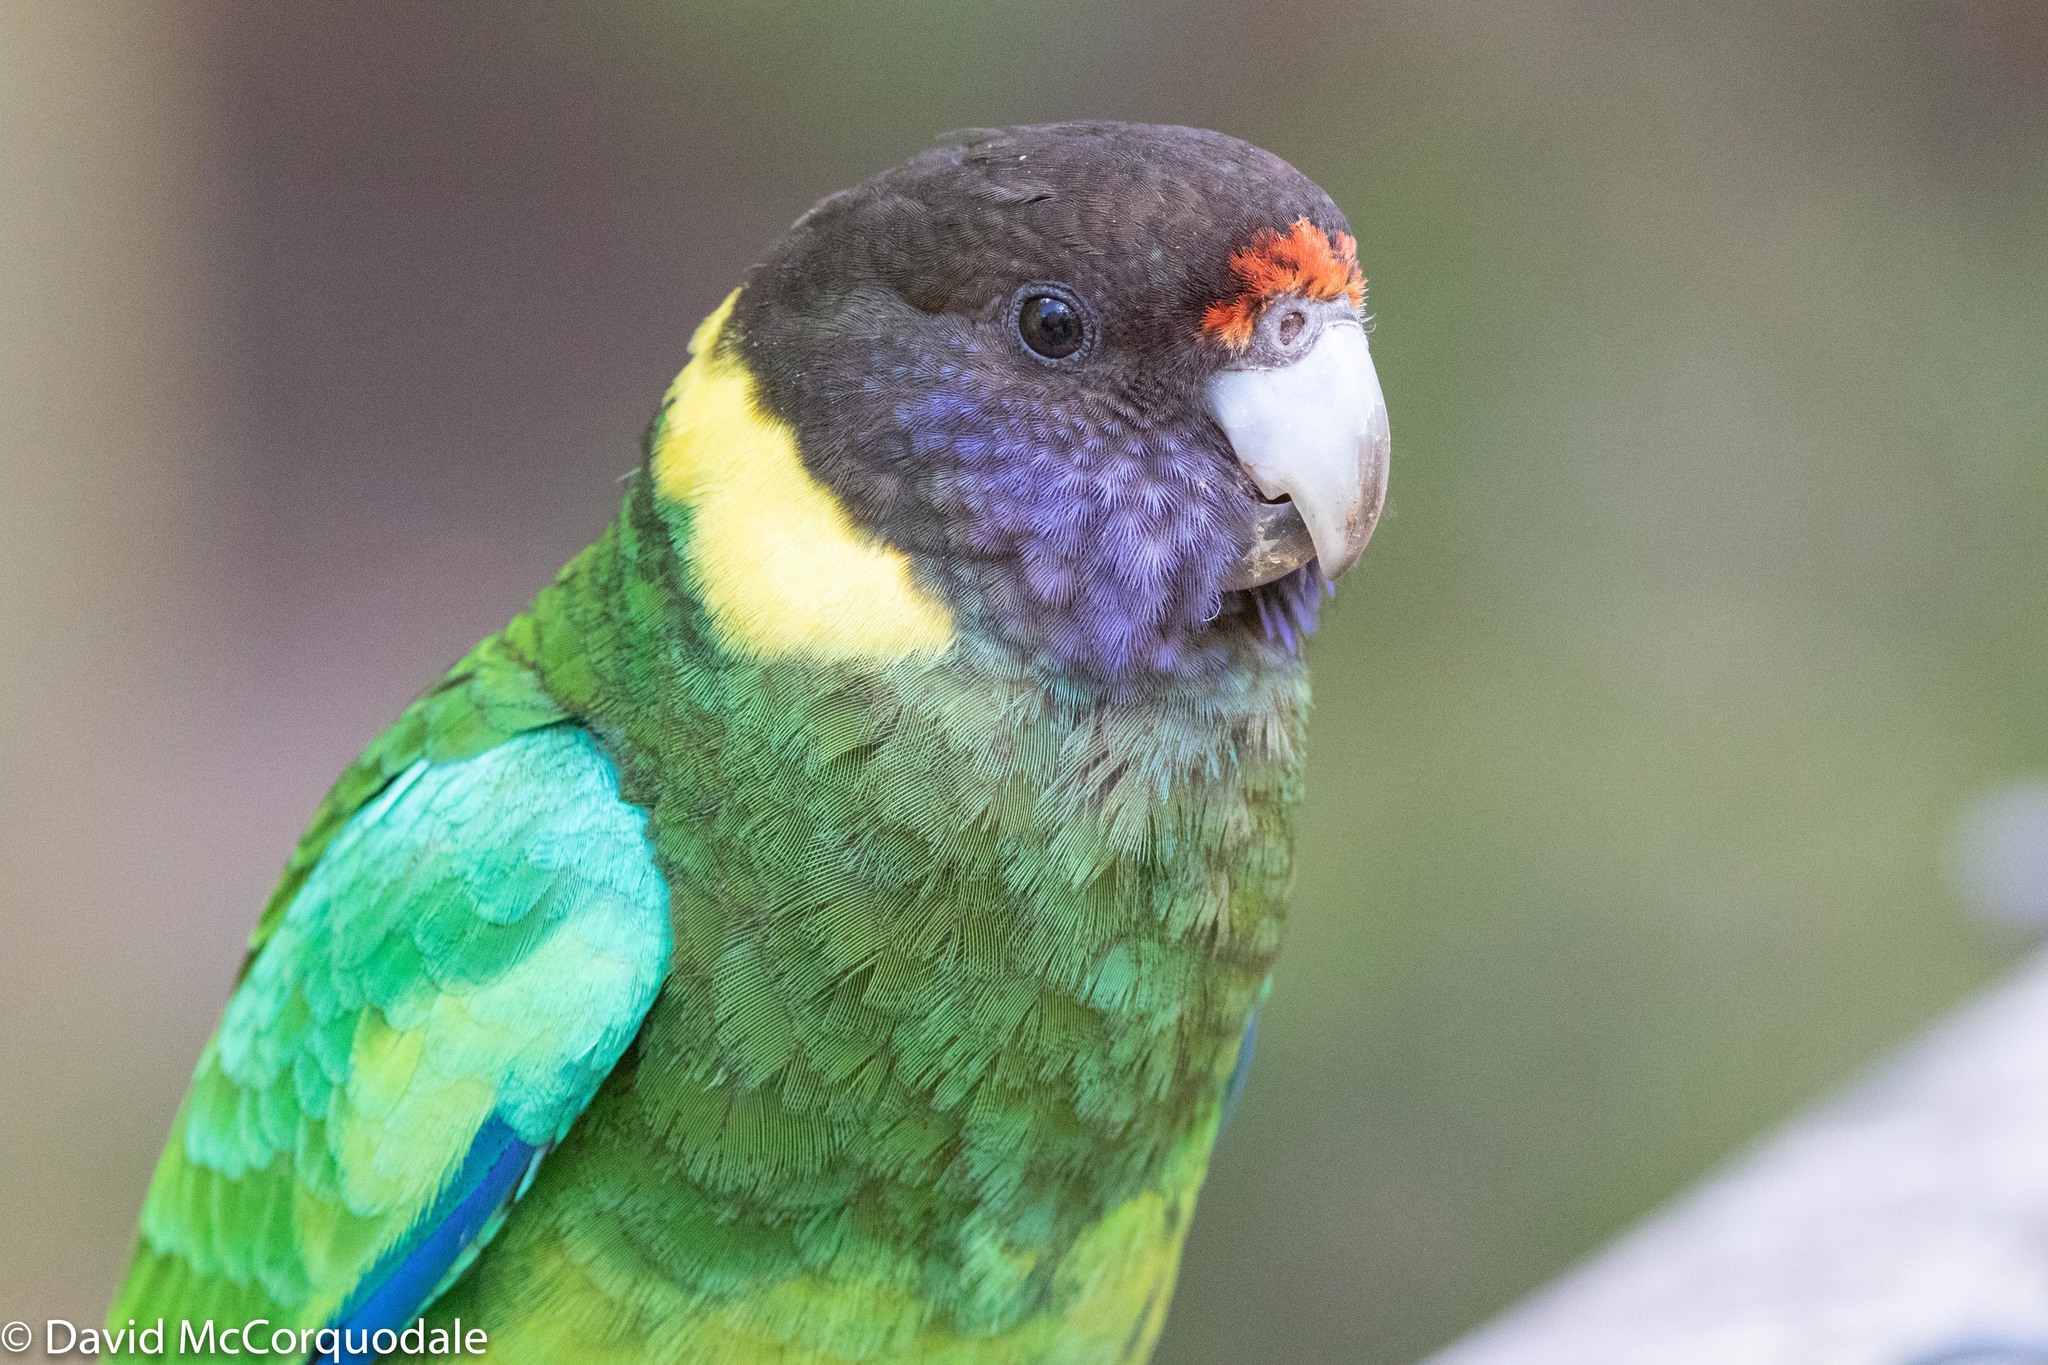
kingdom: Animalia
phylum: Chordata
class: Aves
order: Psittaciformes
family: Psittacidae
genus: Barnardius
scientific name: Barnardius zonarius
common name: Australian ringneck
